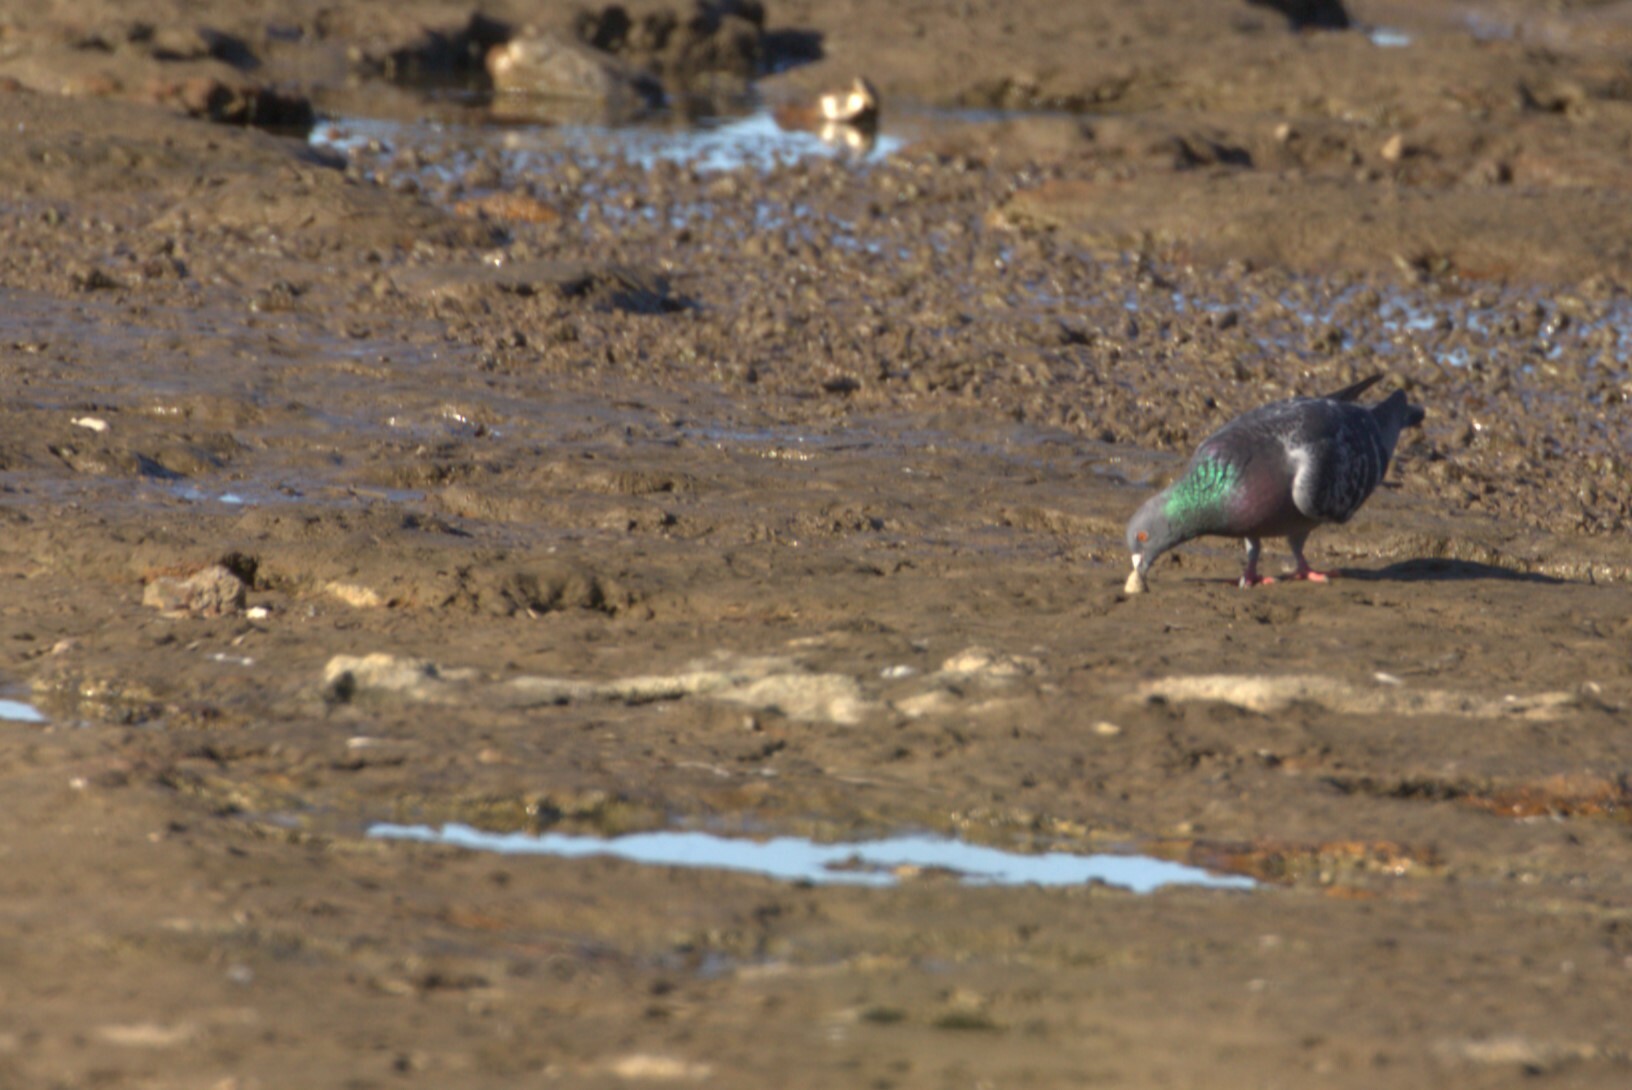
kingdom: Animalia
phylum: Chordata
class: Aves
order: Columbiformes
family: Columbidae
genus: Columba
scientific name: Columba livia
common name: Rock pigeon
